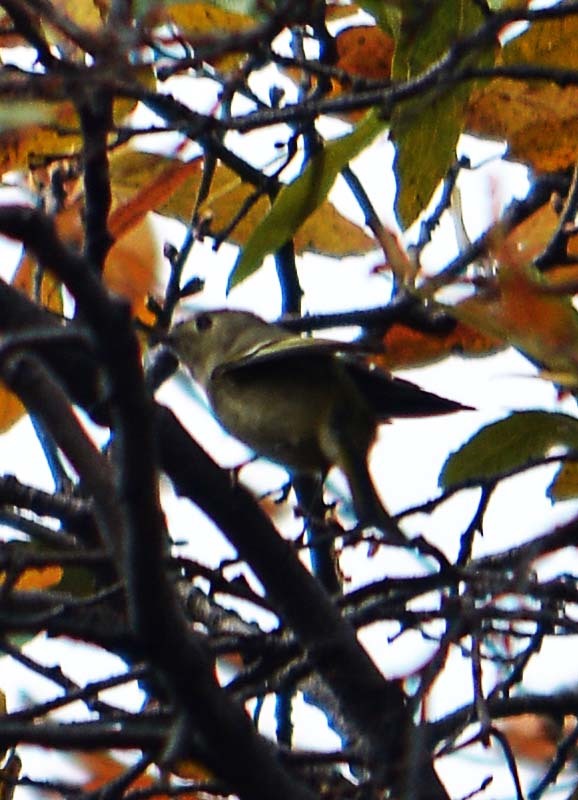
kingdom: Animalia
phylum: Chordata
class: Aves
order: Passeriformes
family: Regulidae
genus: Regulus
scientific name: Regulus calendula
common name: Ruby-crowned kinglet
